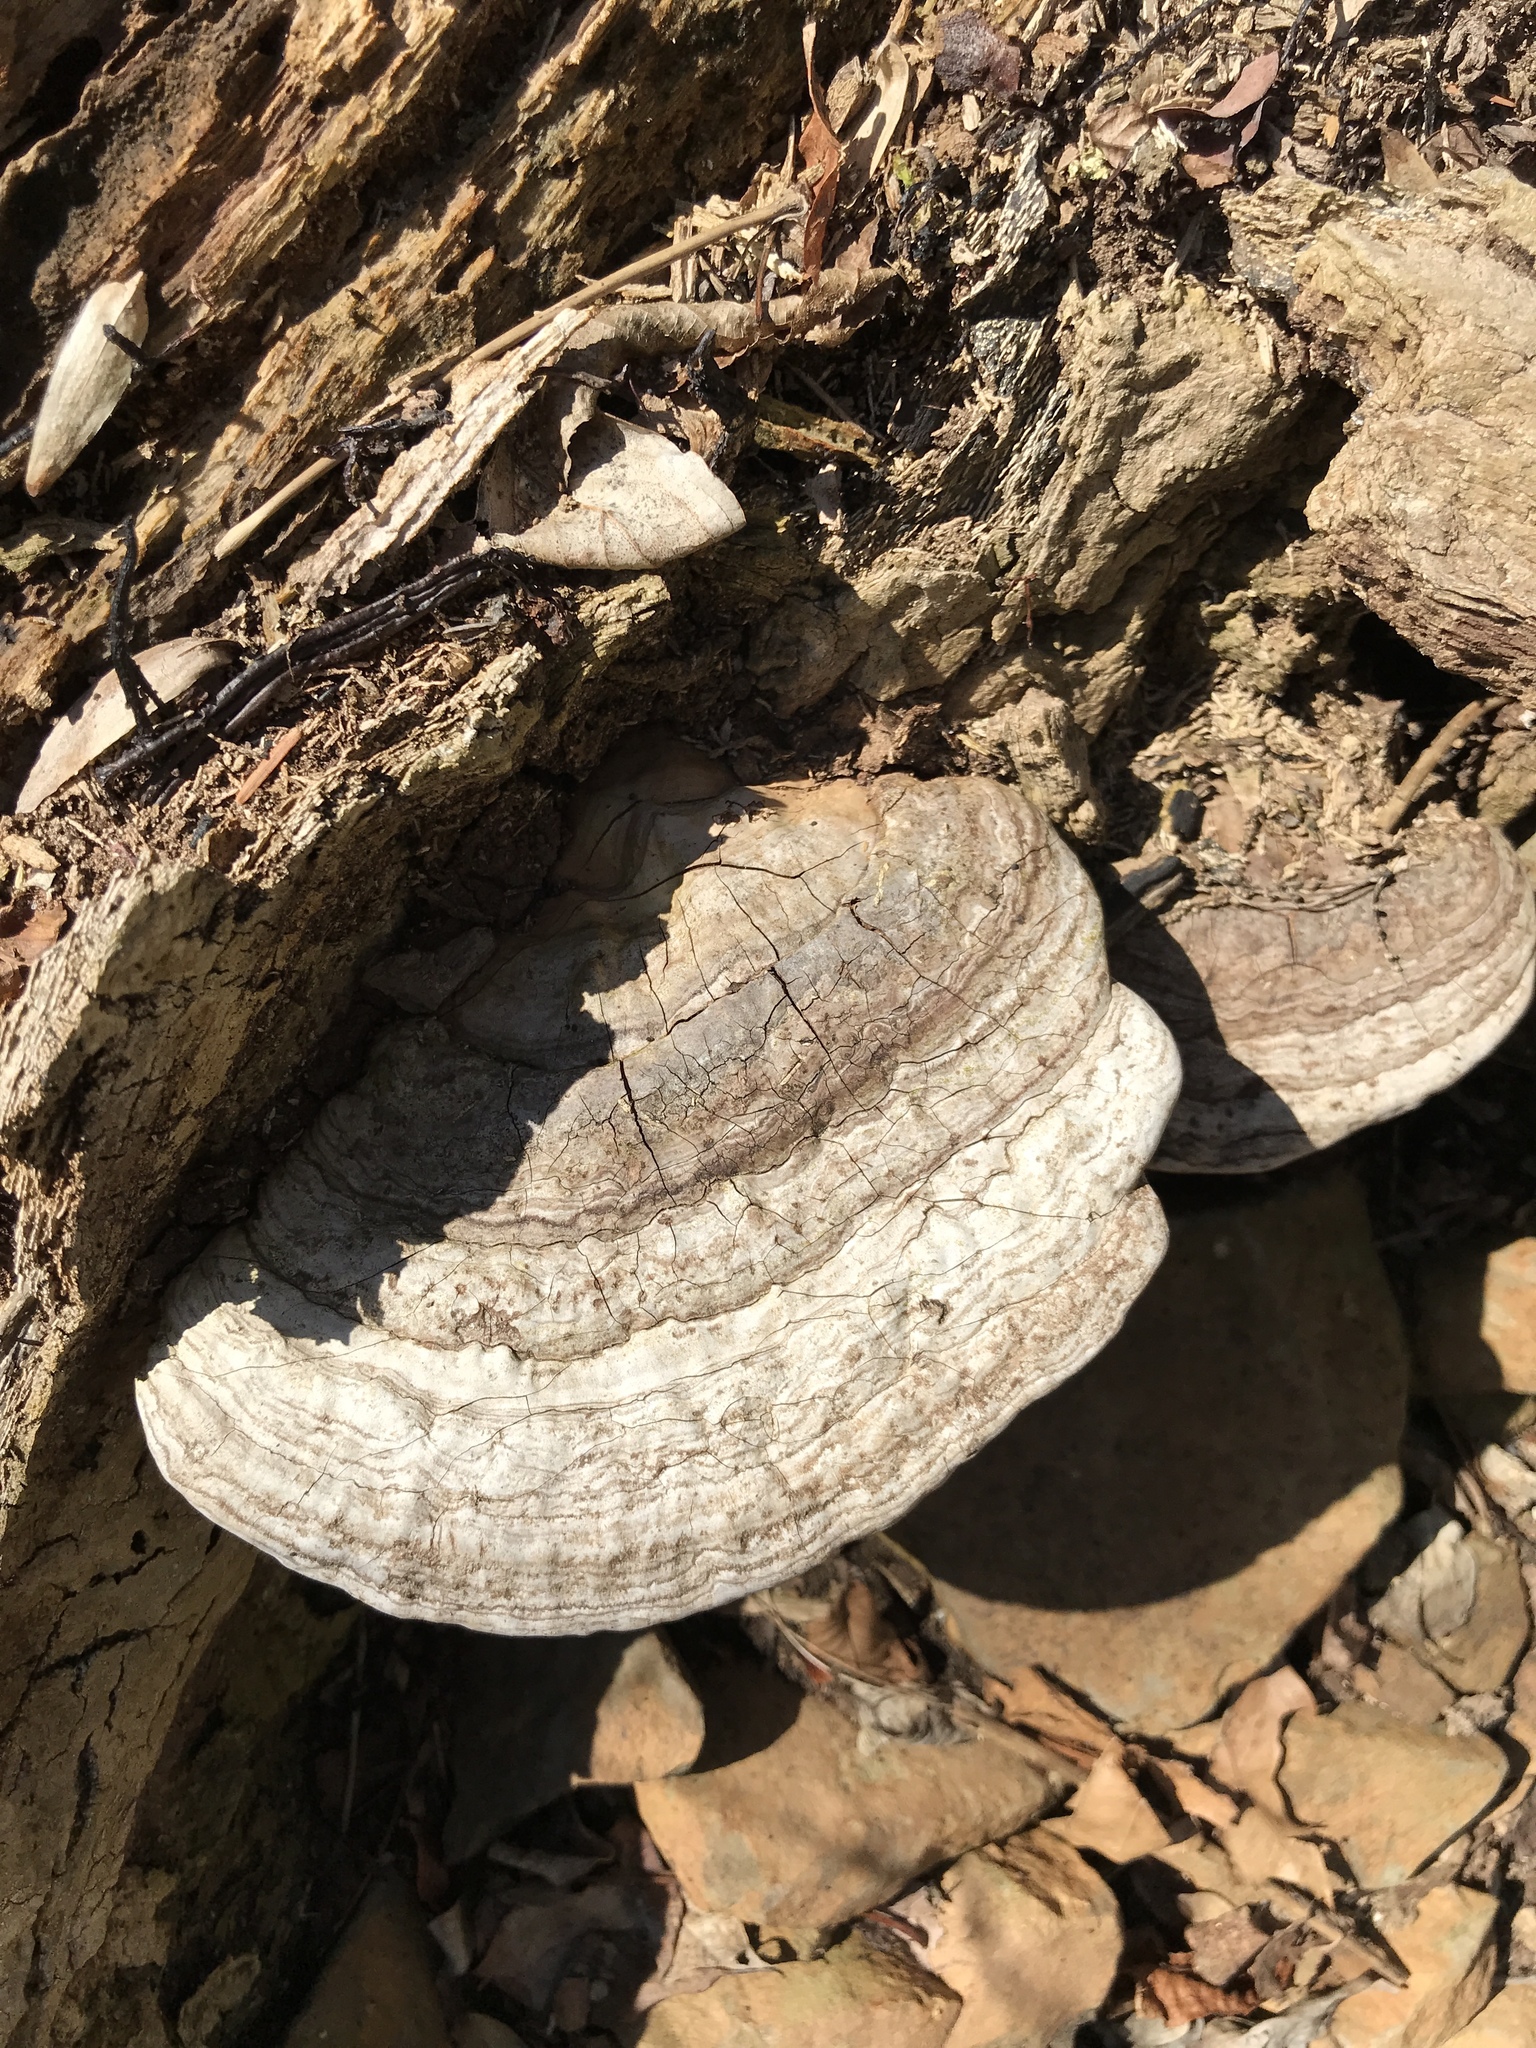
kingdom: Fungi
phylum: Basidiomycota
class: Agaricomycetes
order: Polyporales
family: Polyporaceae
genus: Ganoderma
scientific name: Ganoderma applanatum
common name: Artist's bracket
